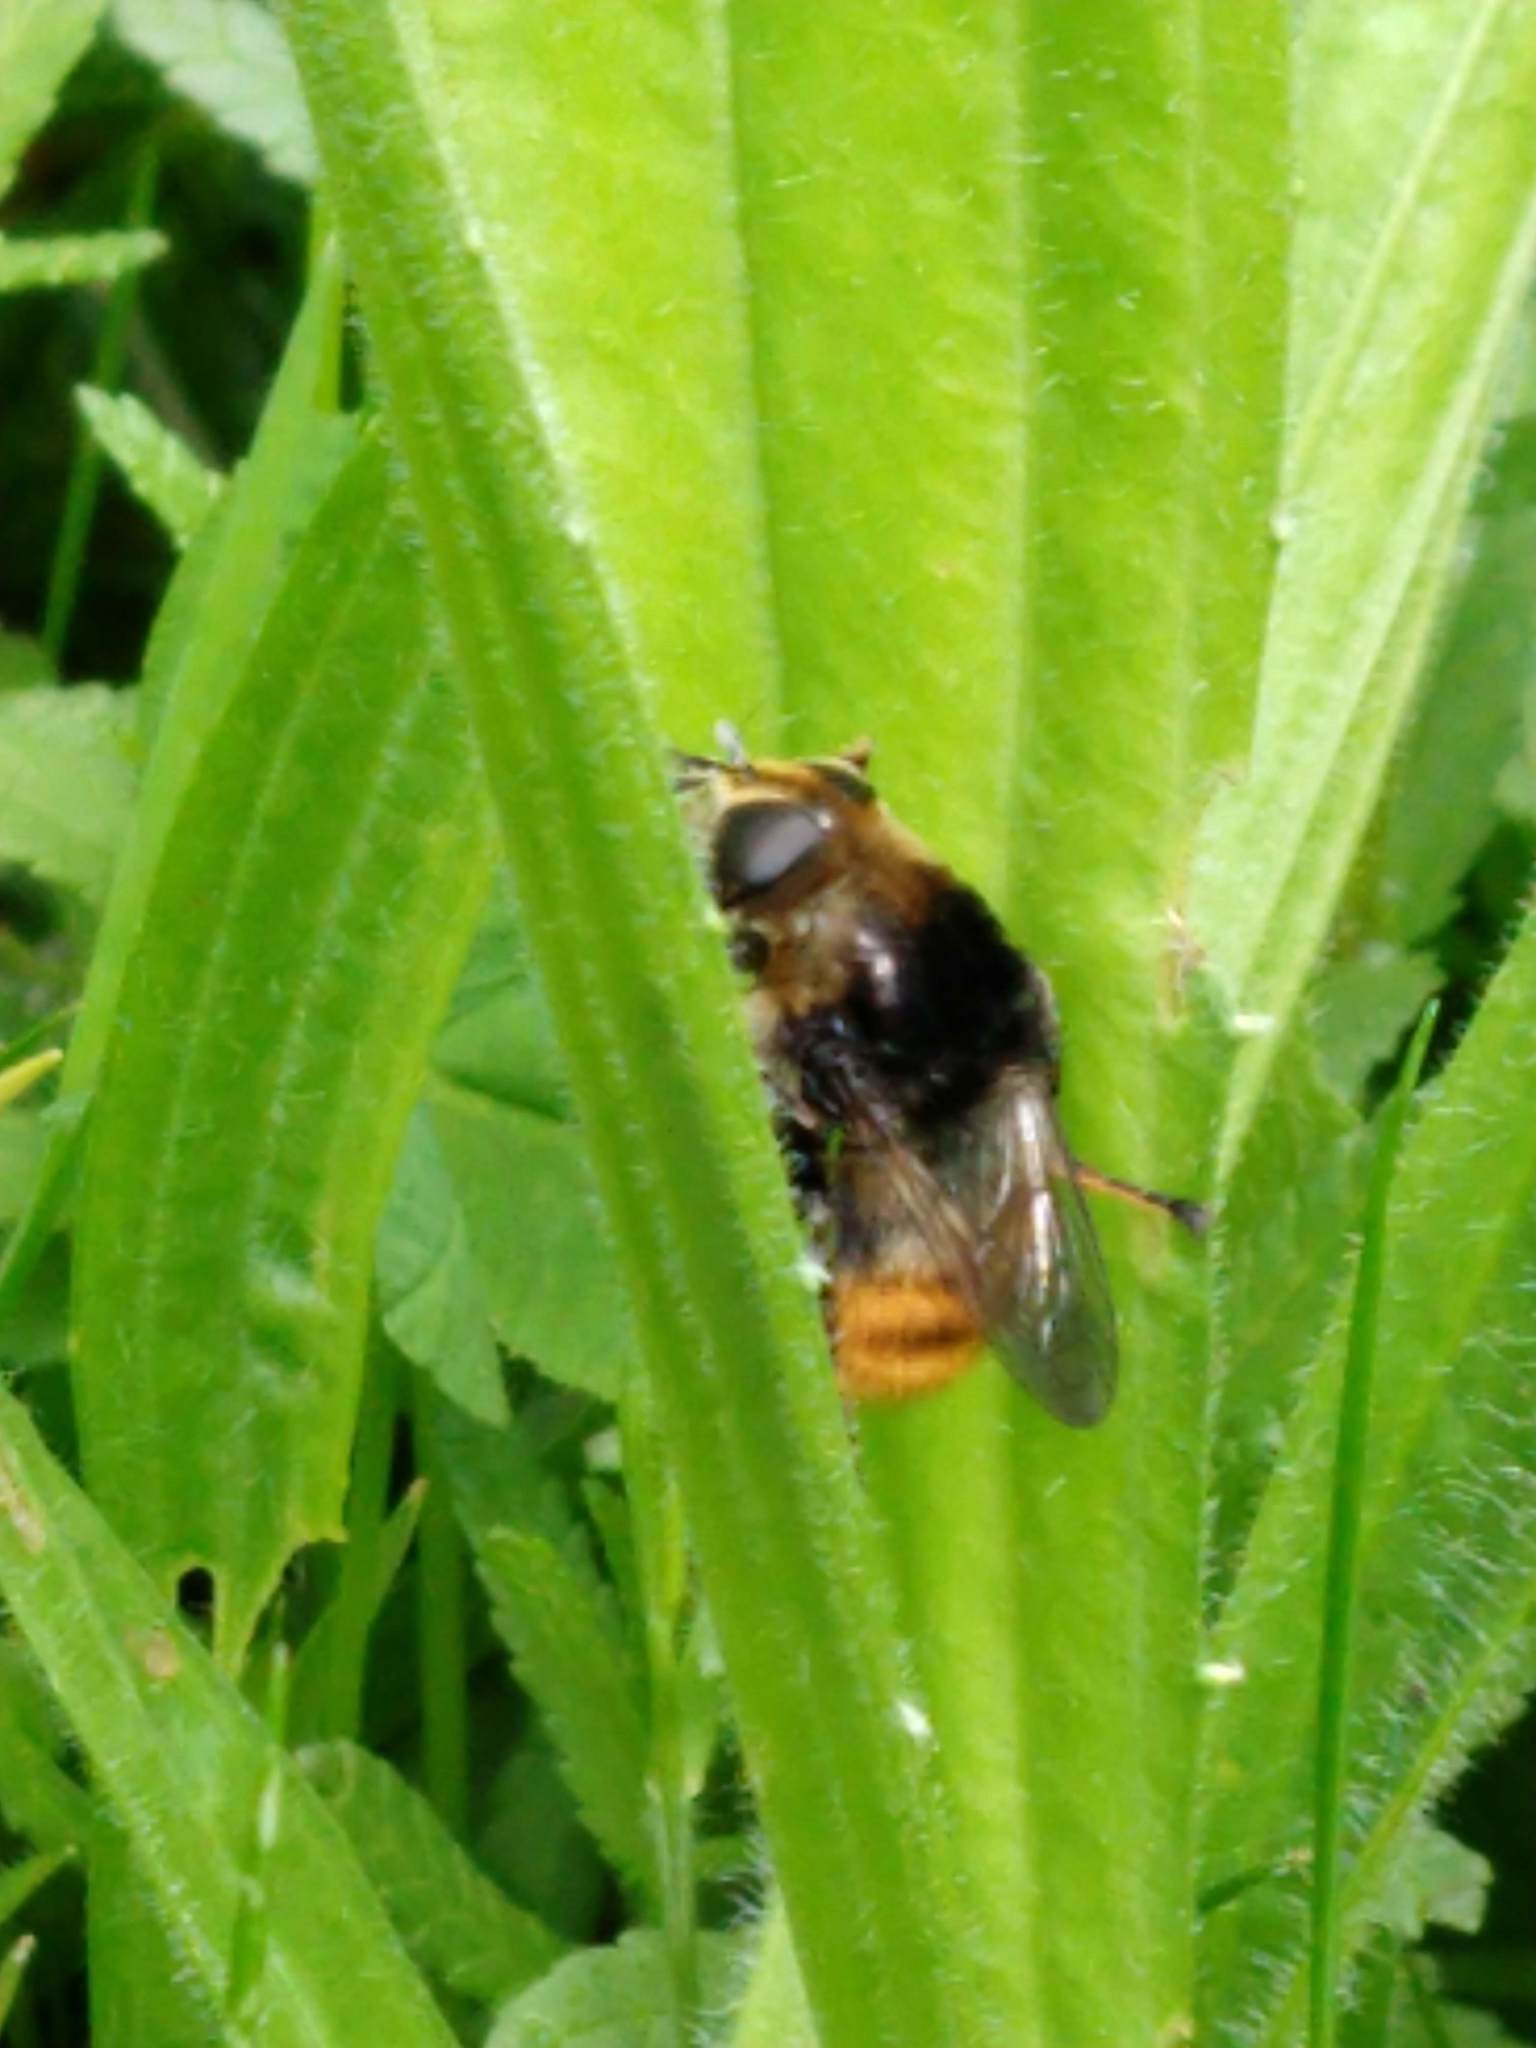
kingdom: Animalia
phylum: Arthropoda
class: Insecta
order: Diptera
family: Syrphidae
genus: Merodon
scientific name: Merodon equestris
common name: Greater bulb-fly
